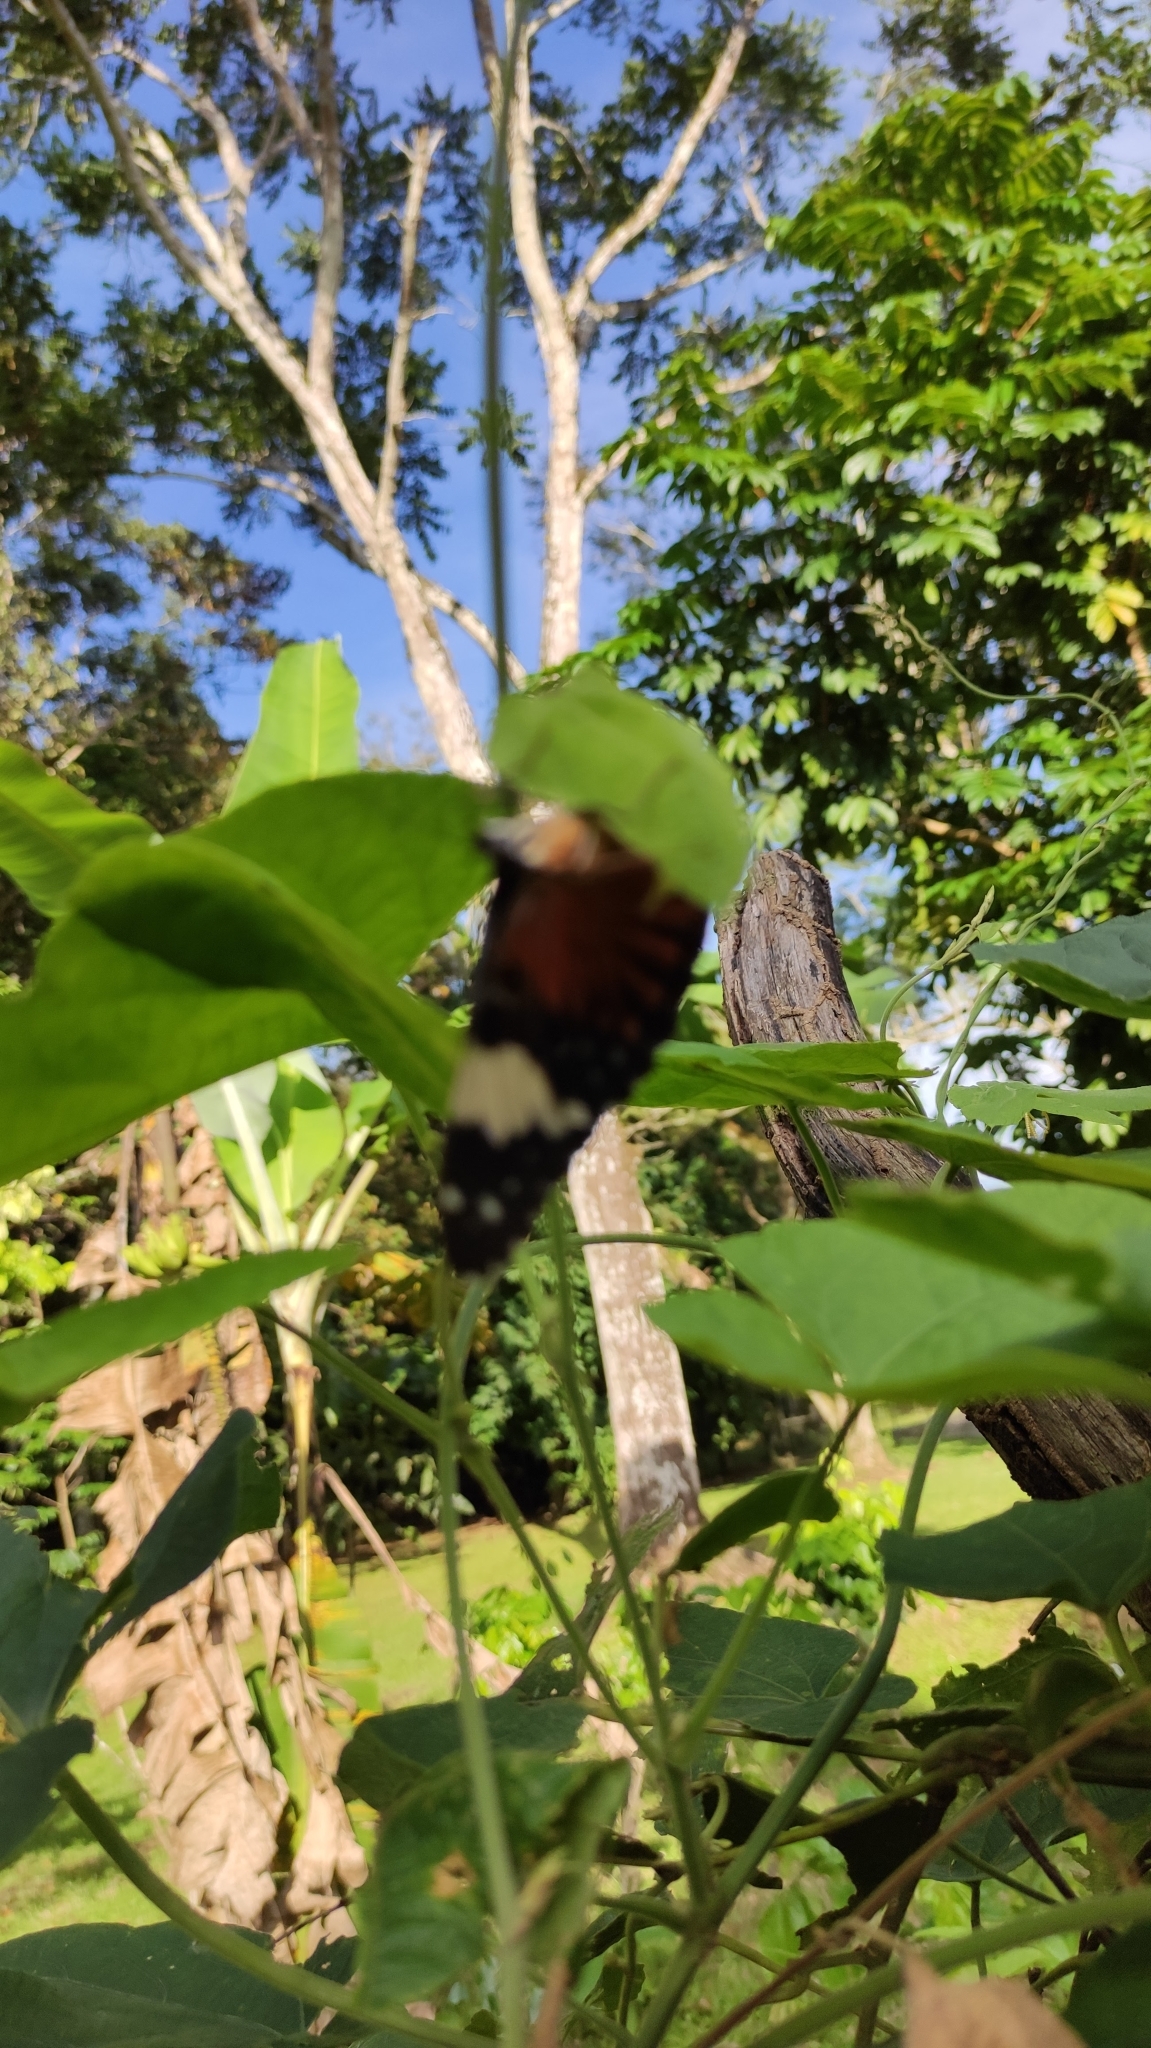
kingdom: Animalia
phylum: Arthropoda
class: Insecta
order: Lepidoptera
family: Nymphalidae
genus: Hamadryas
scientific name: Hamadryas amphinome
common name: Red cracker
